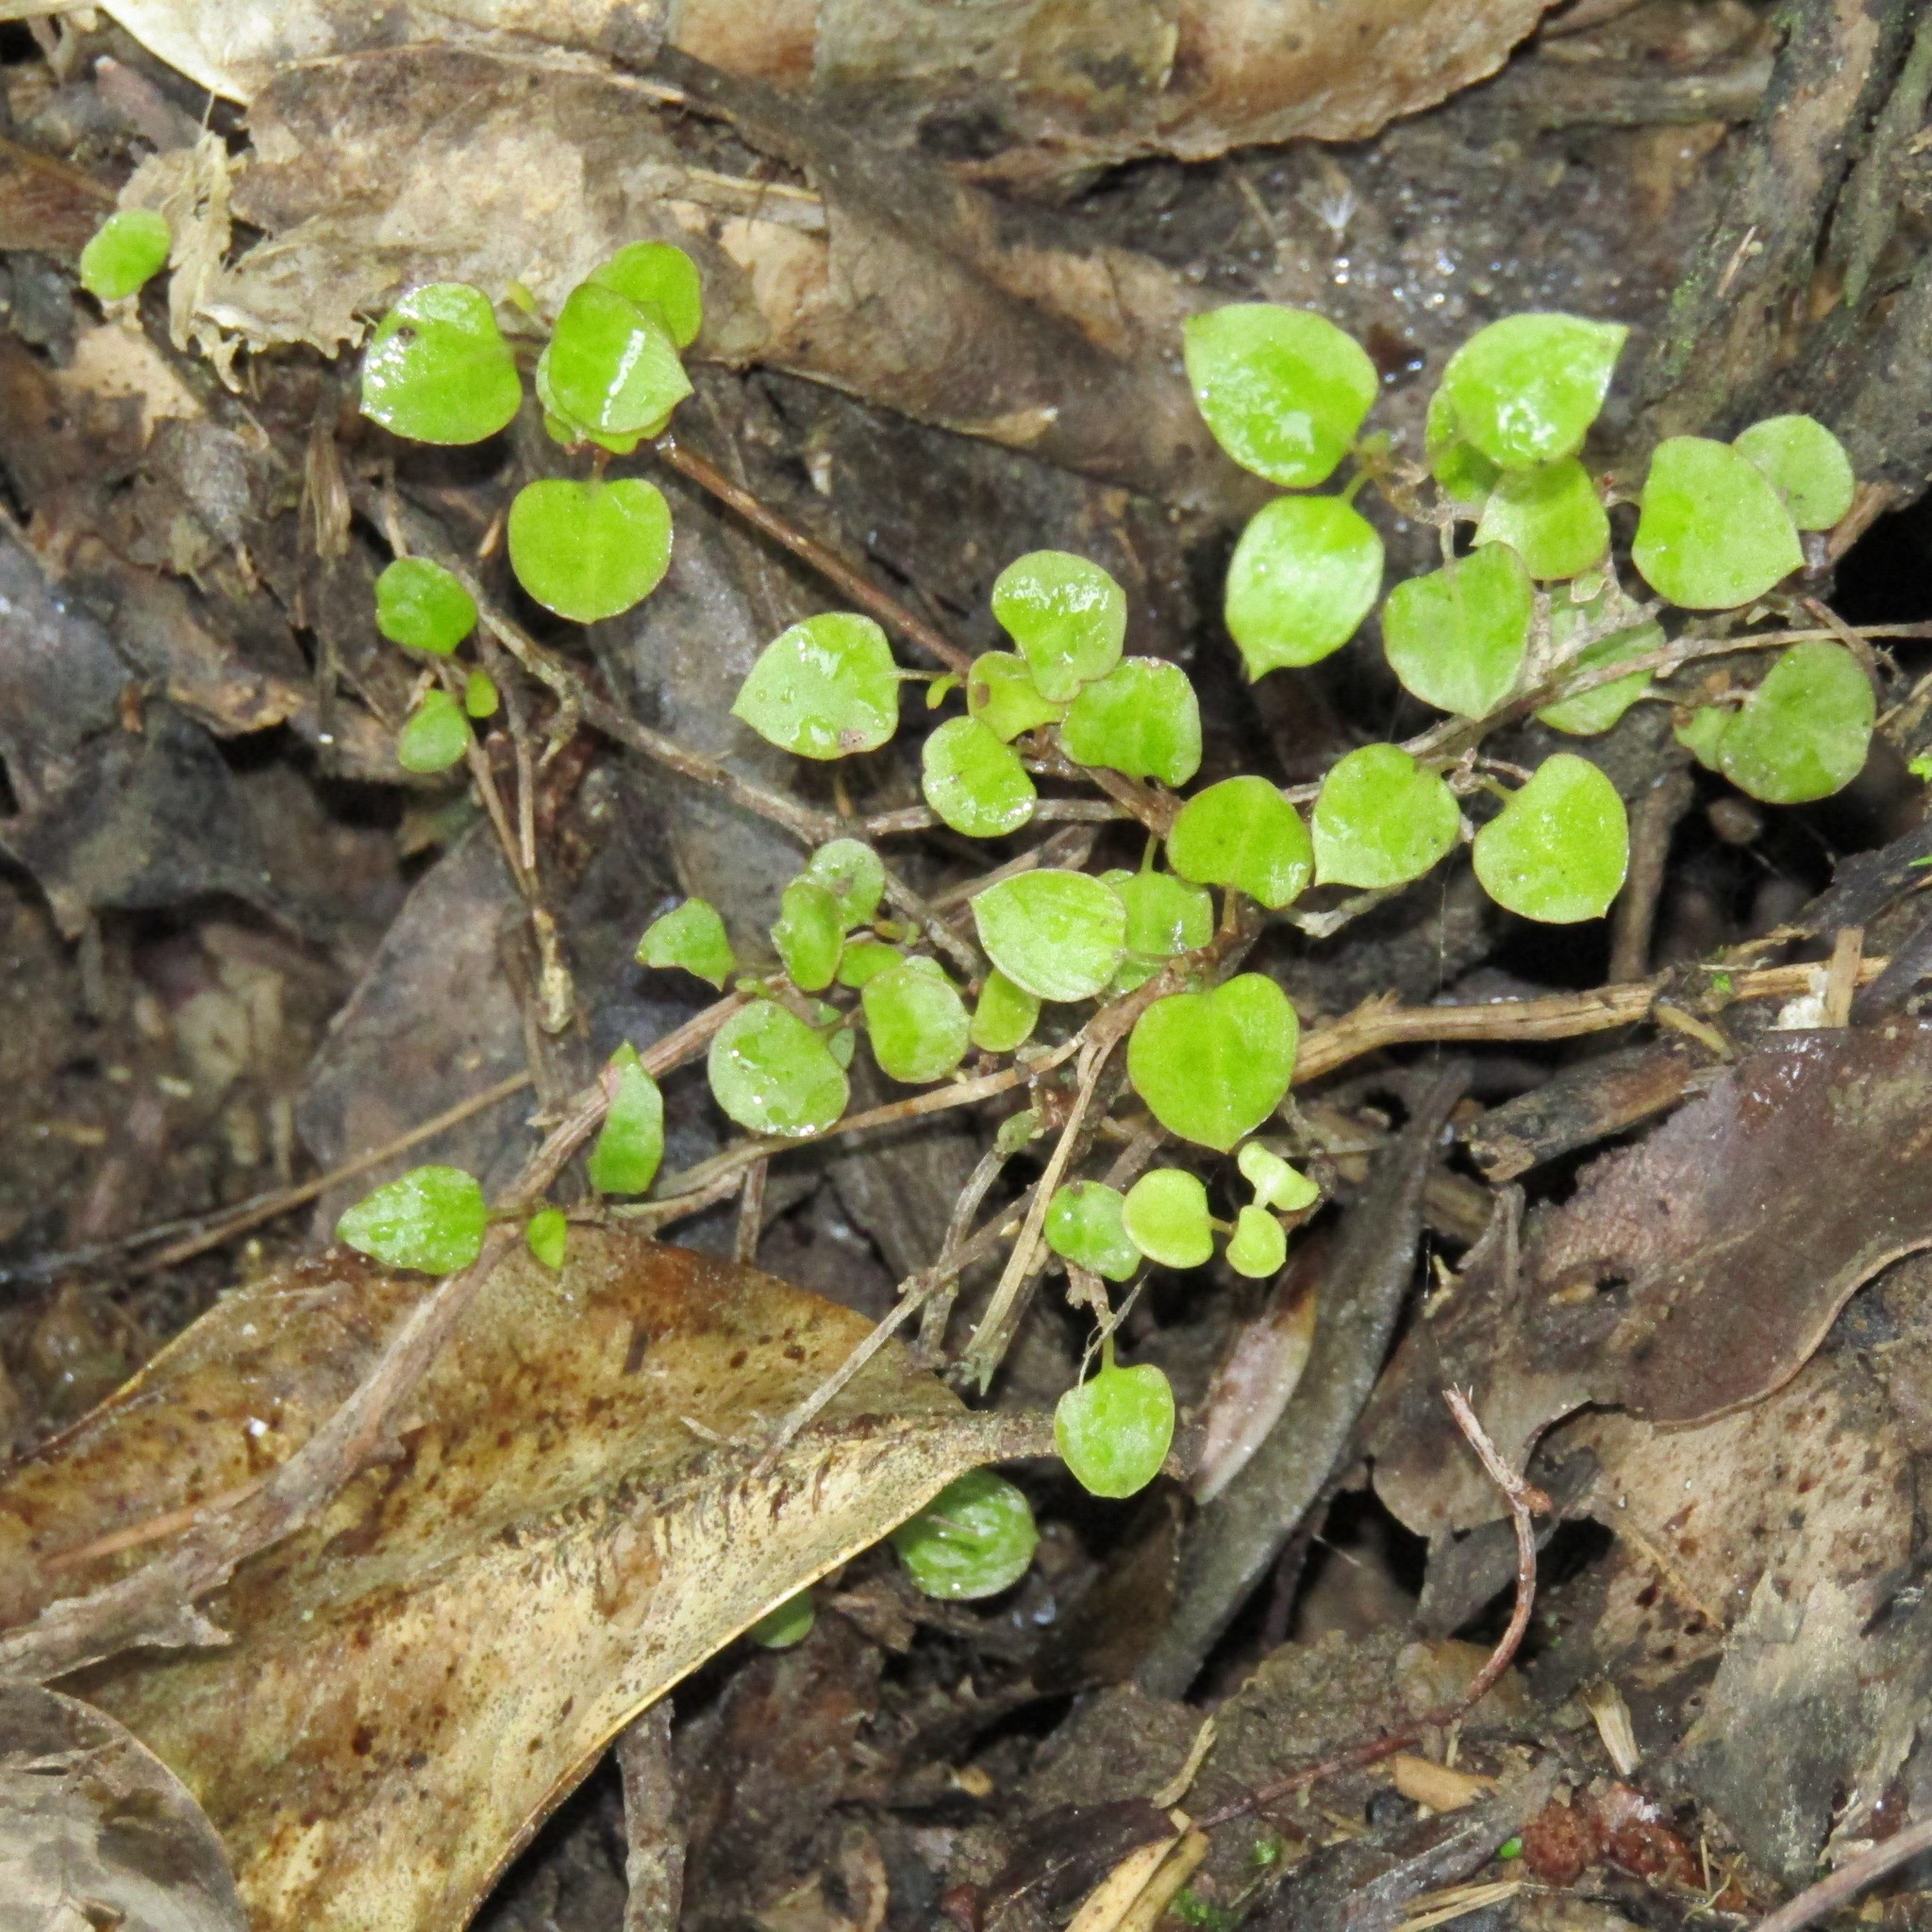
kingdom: Plantae
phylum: Tracheophyta
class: Magnoliopsida
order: Caryophyllales
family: Polygonaceae
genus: Muehlenbeckia
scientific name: Muehlenbeckia complexa
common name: Wireplant
